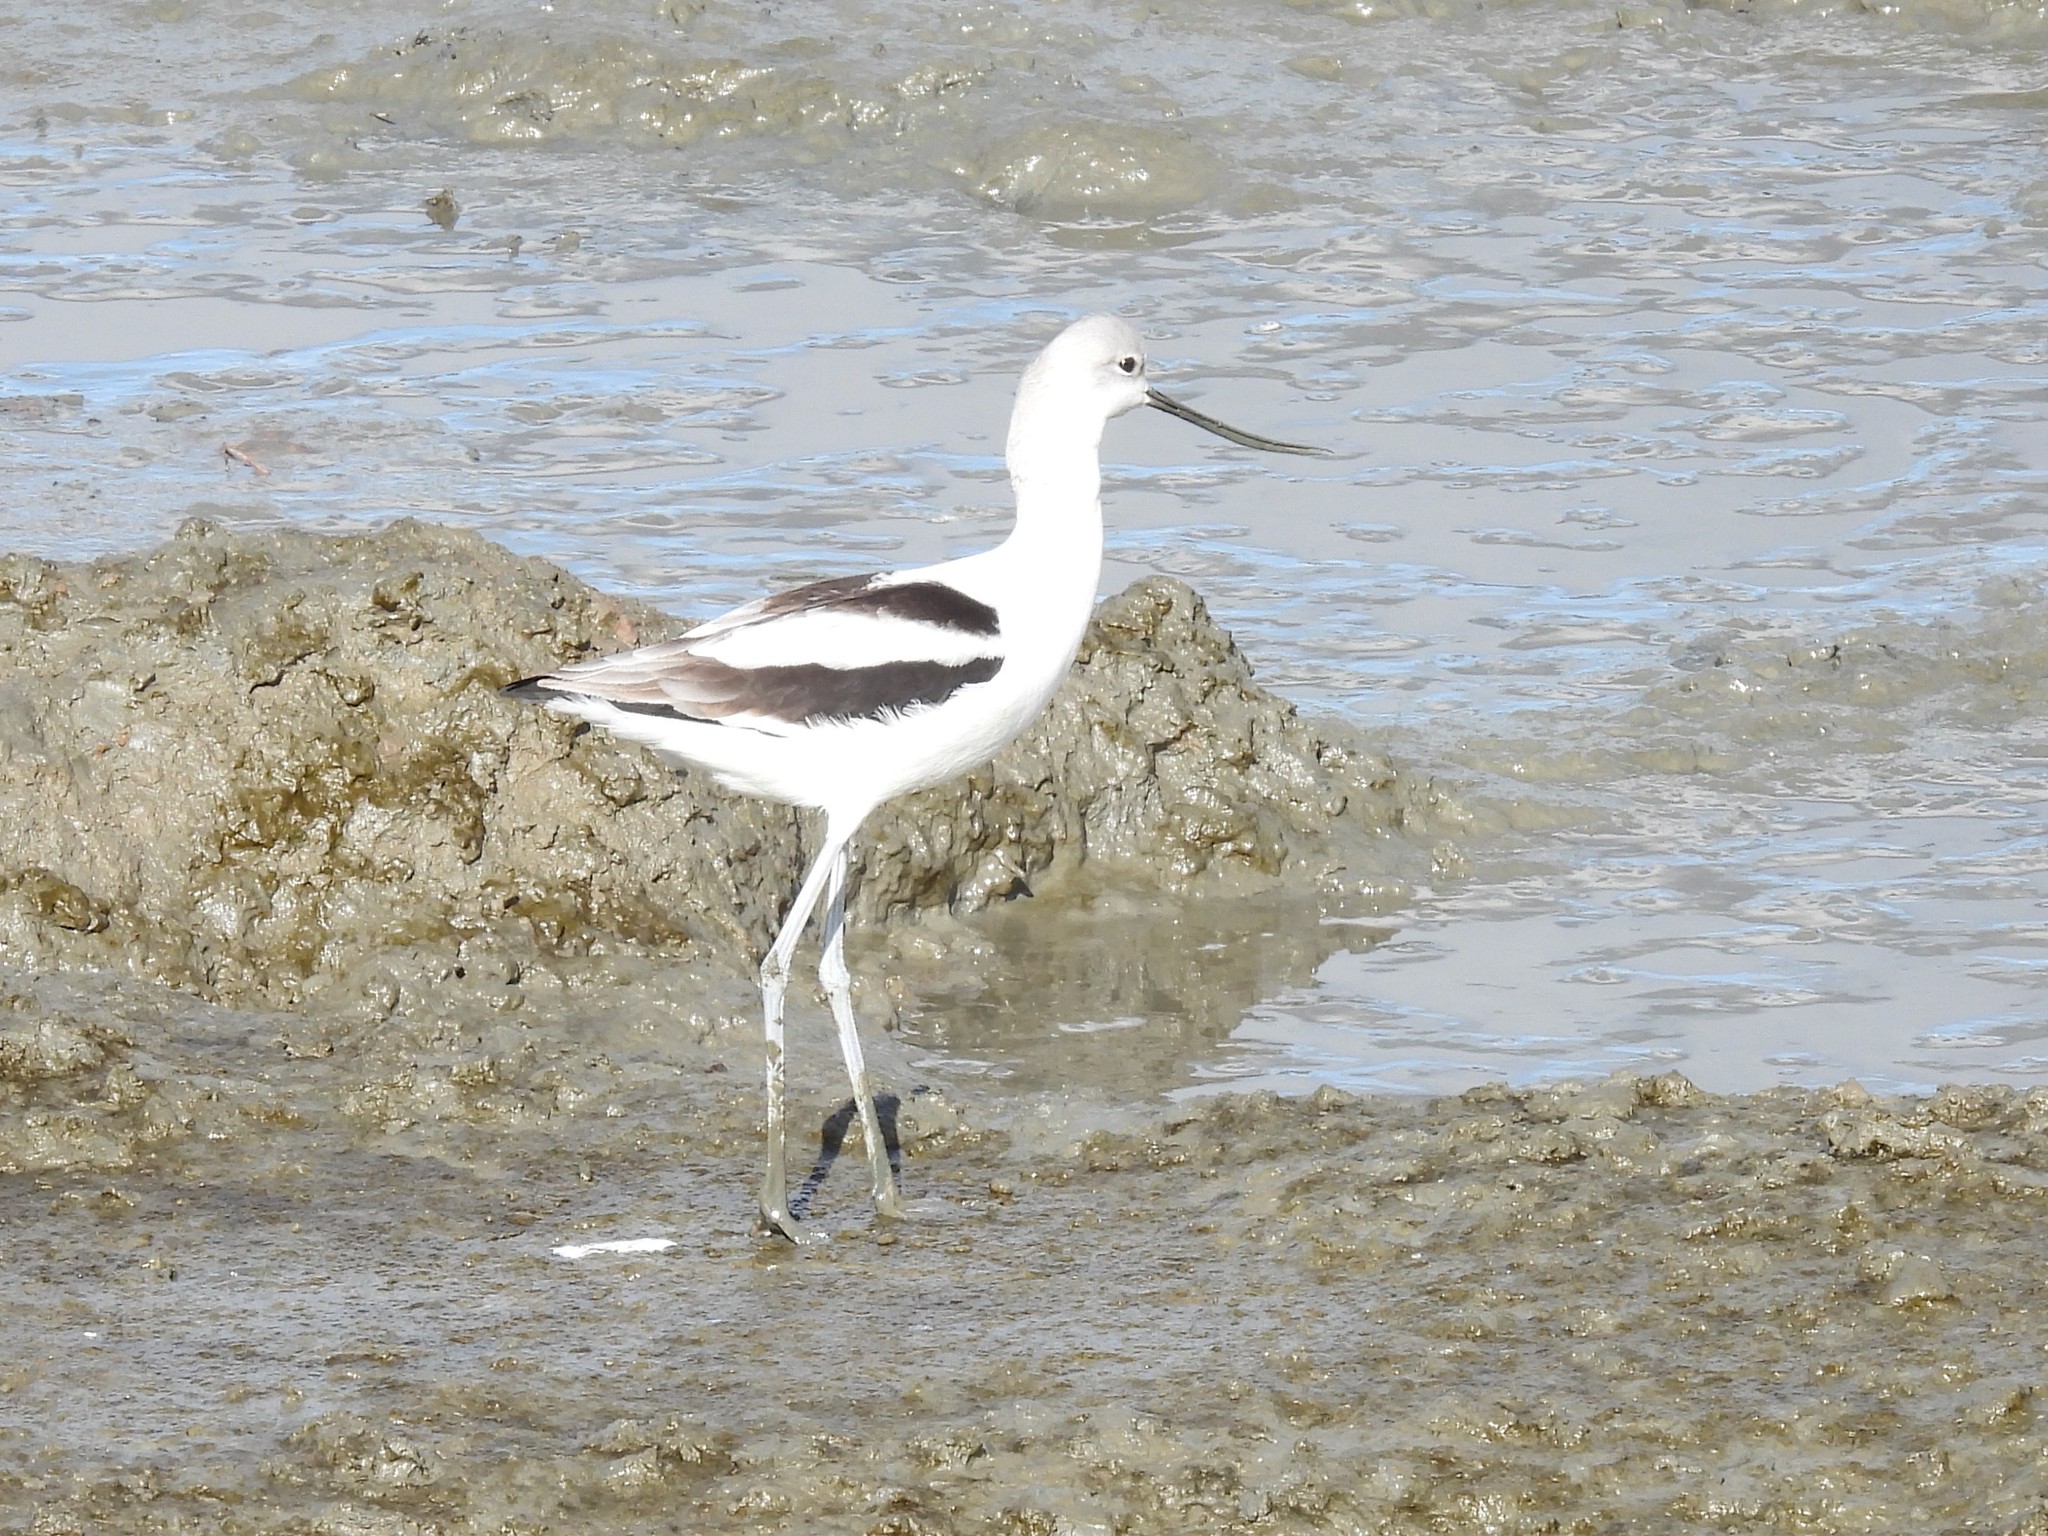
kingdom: Animalia
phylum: Chordata
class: Aves
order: Charadriiformes
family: Recurvirostridae
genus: Recurvirostra
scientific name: Recurvirostra americana
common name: American avocet
